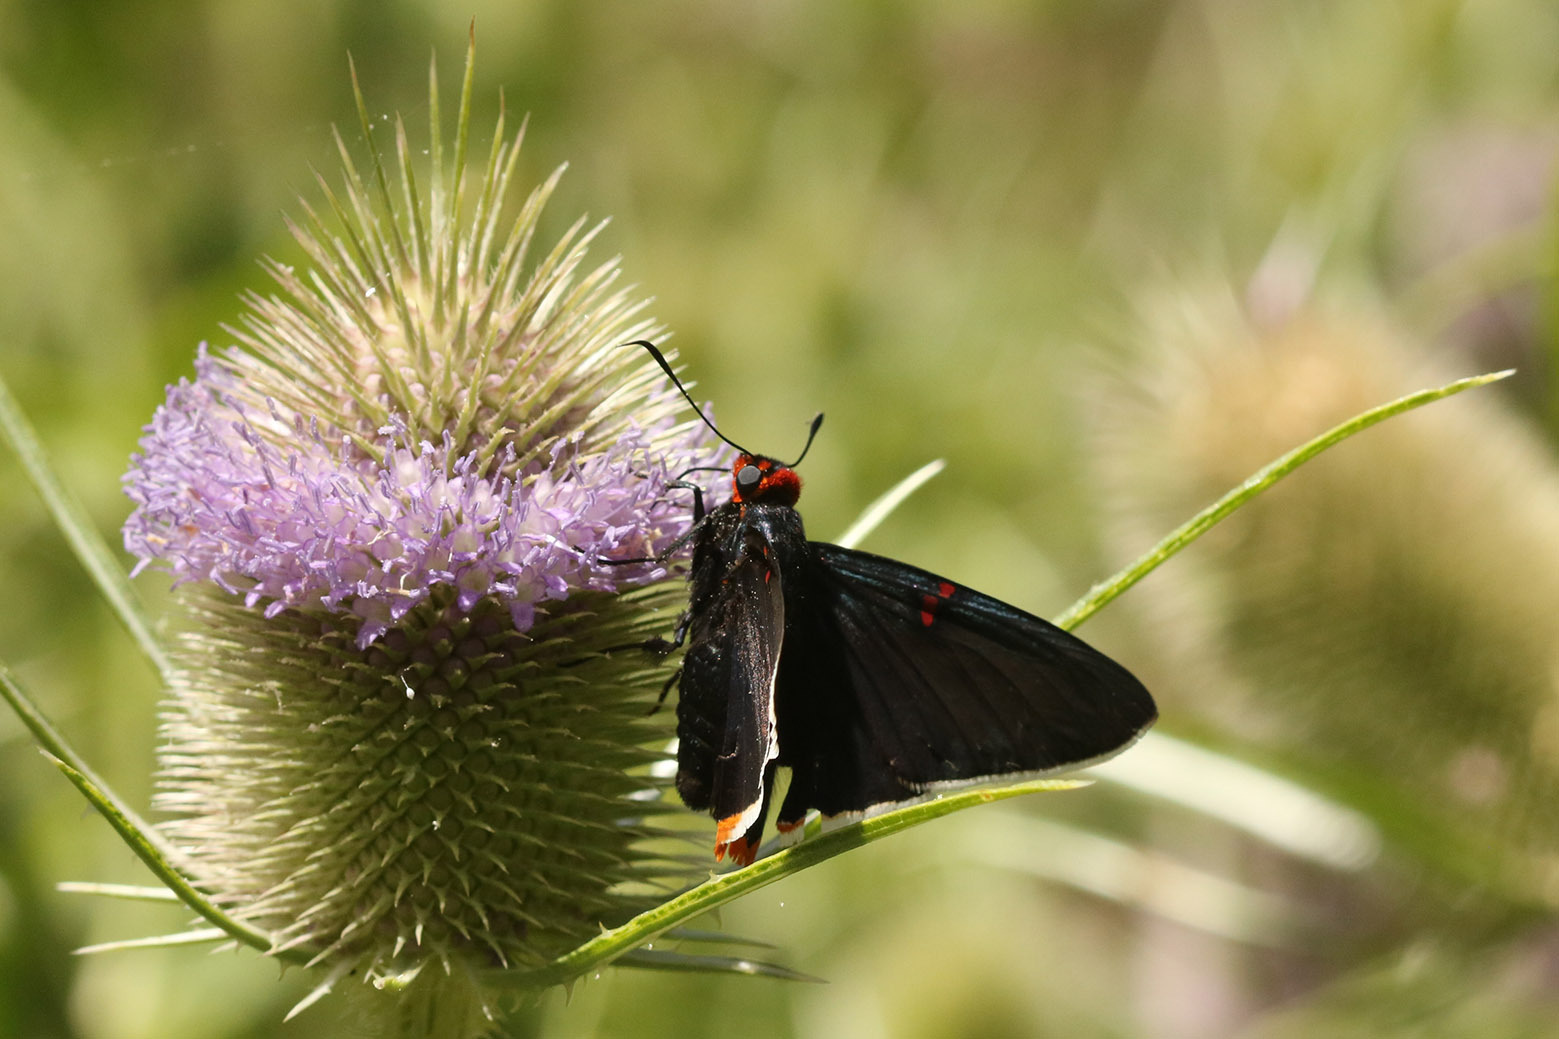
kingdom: Animalia
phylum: Arthropoda
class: Insecta
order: Lepidoptera
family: Hesperiidae
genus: Phocides
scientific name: Phocides polybius
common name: Guava skipper
